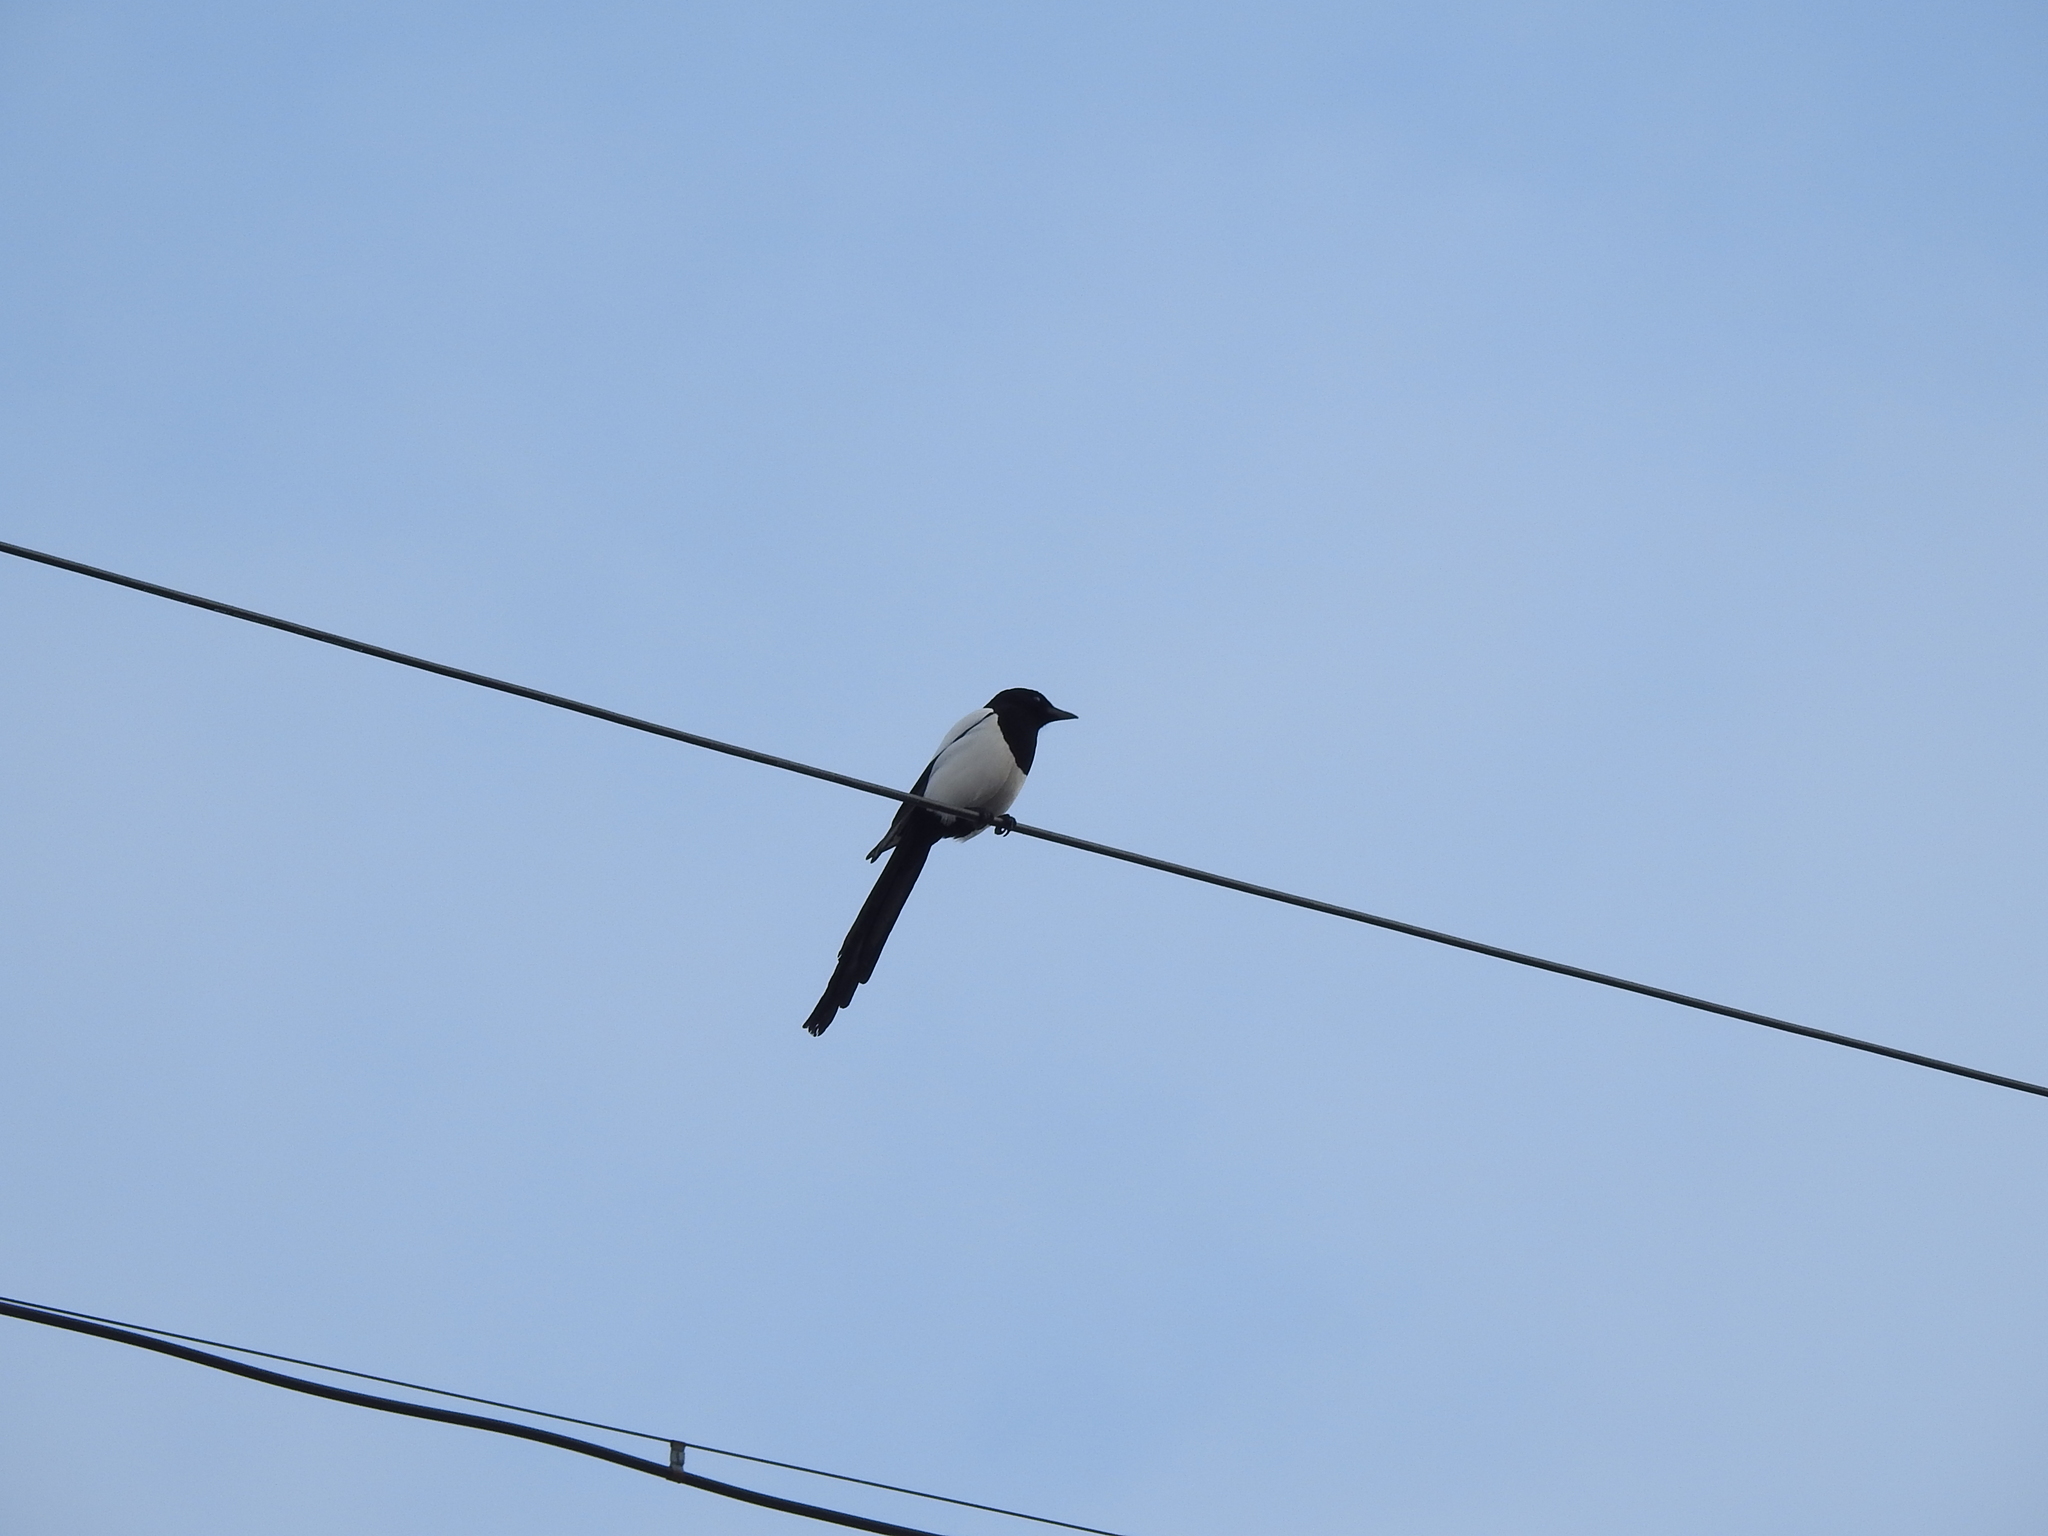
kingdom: Animalia
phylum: Chordata
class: Aves
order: Passeriformes
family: Corvidae
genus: Pica
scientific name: Pica pica
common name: Eurasian magpie
